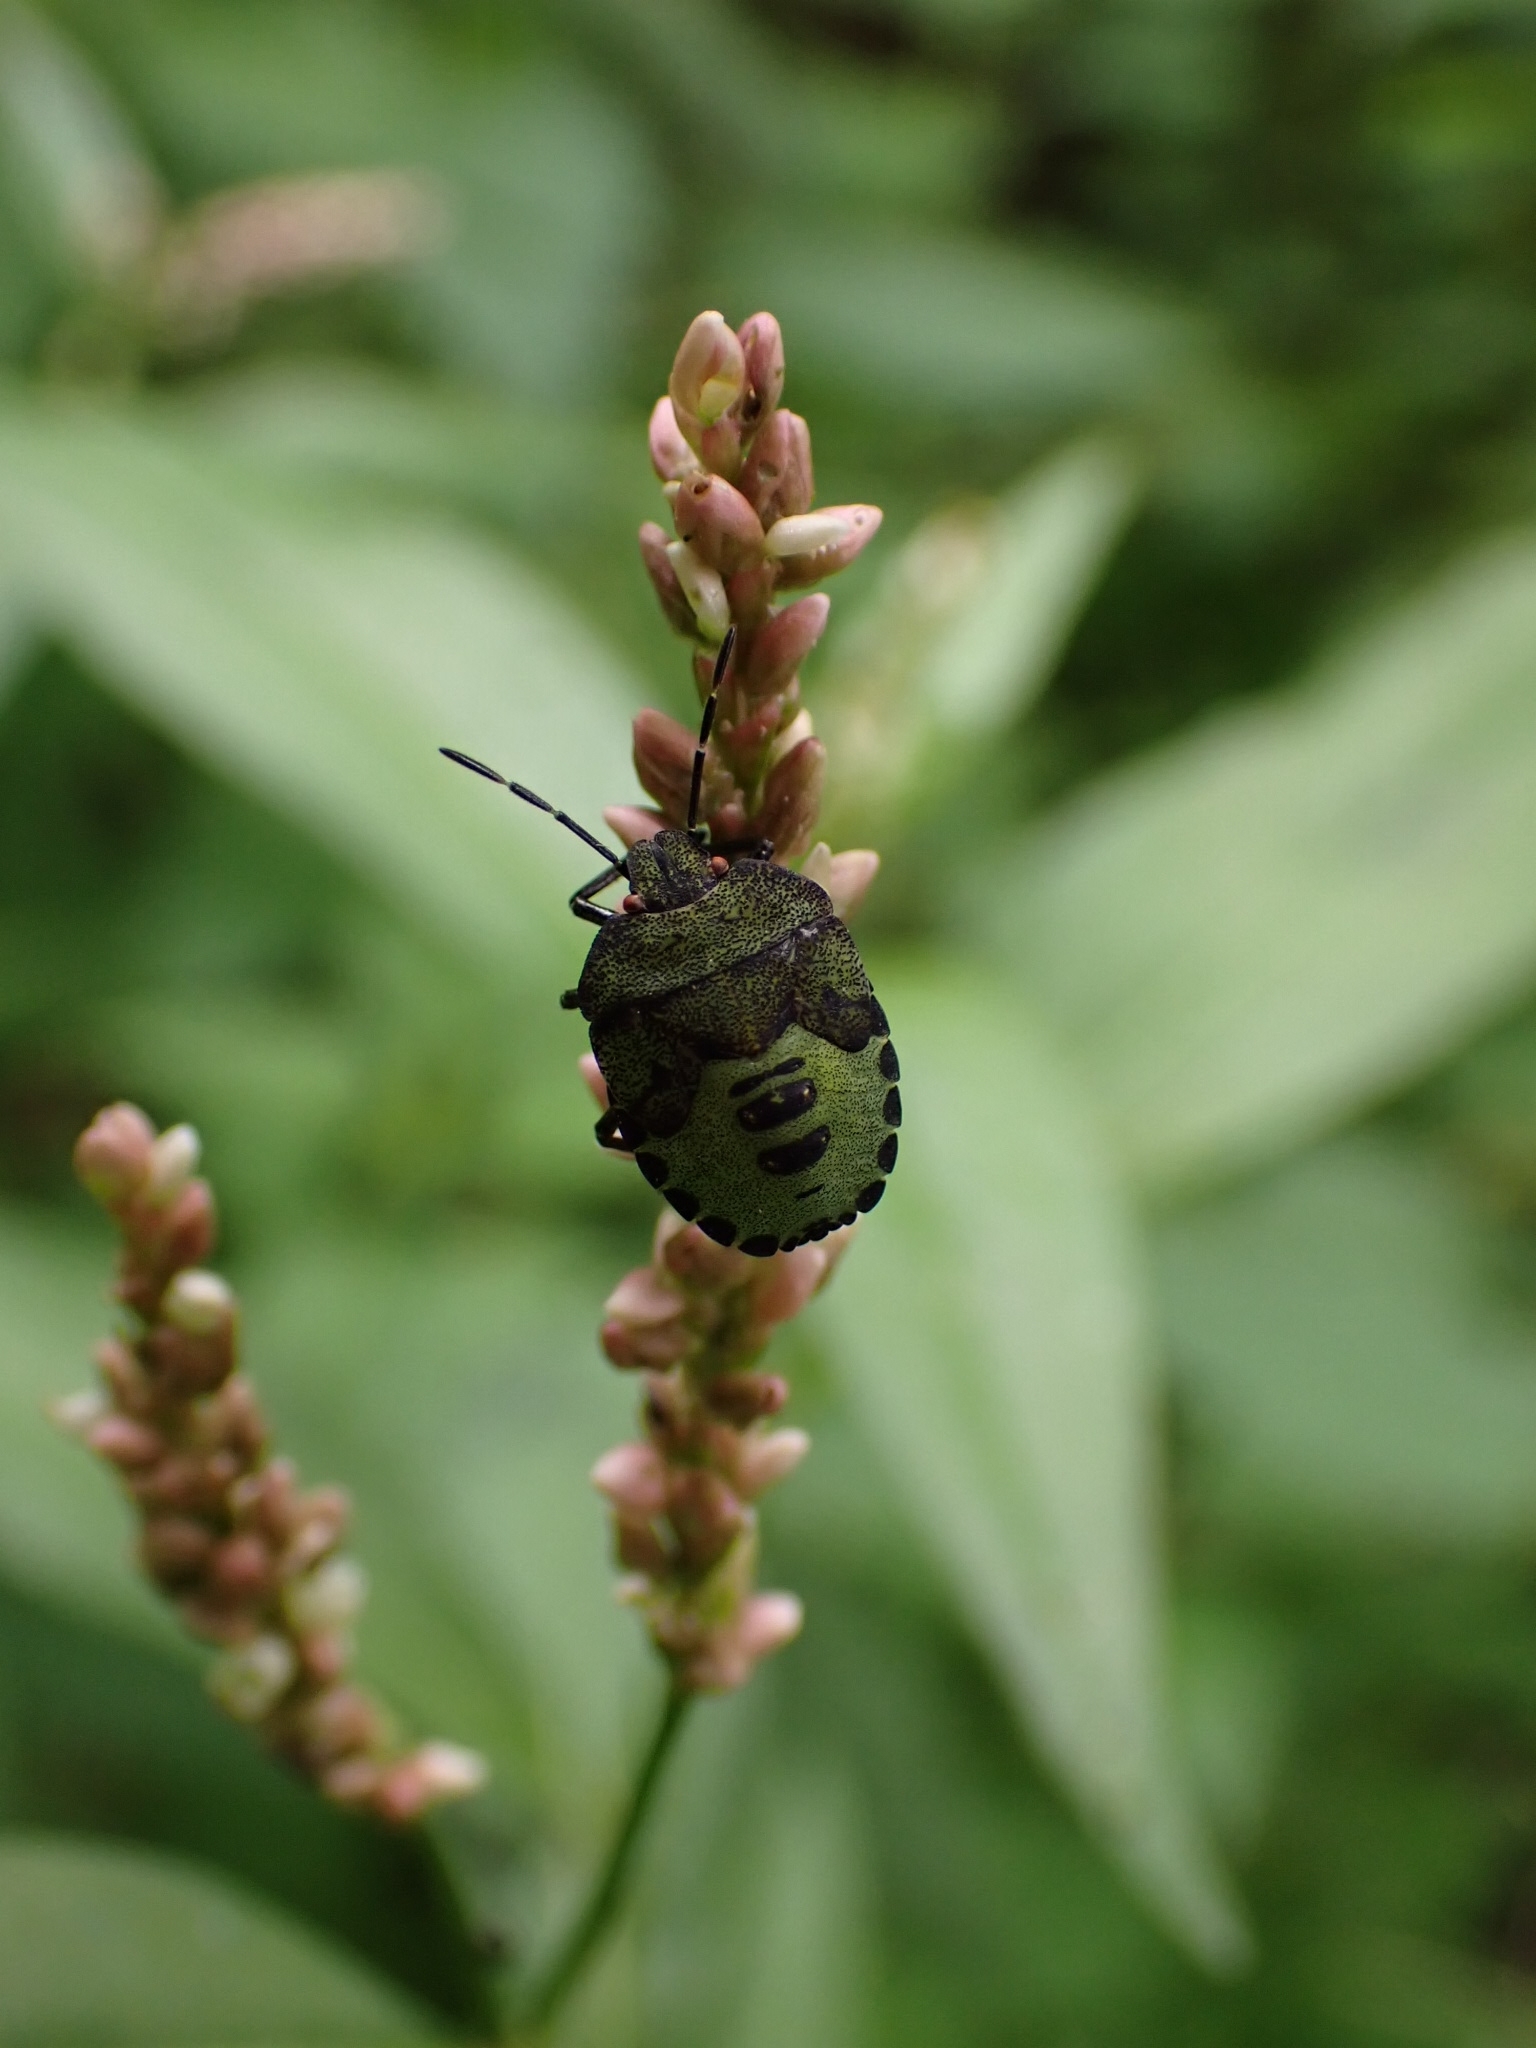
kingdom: Animalia
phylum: Arthropoda
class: Insecta
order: Hemiptera
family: Pentatomidae
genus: Palomena
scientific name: Palomena prasina
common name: Green shieldbug
